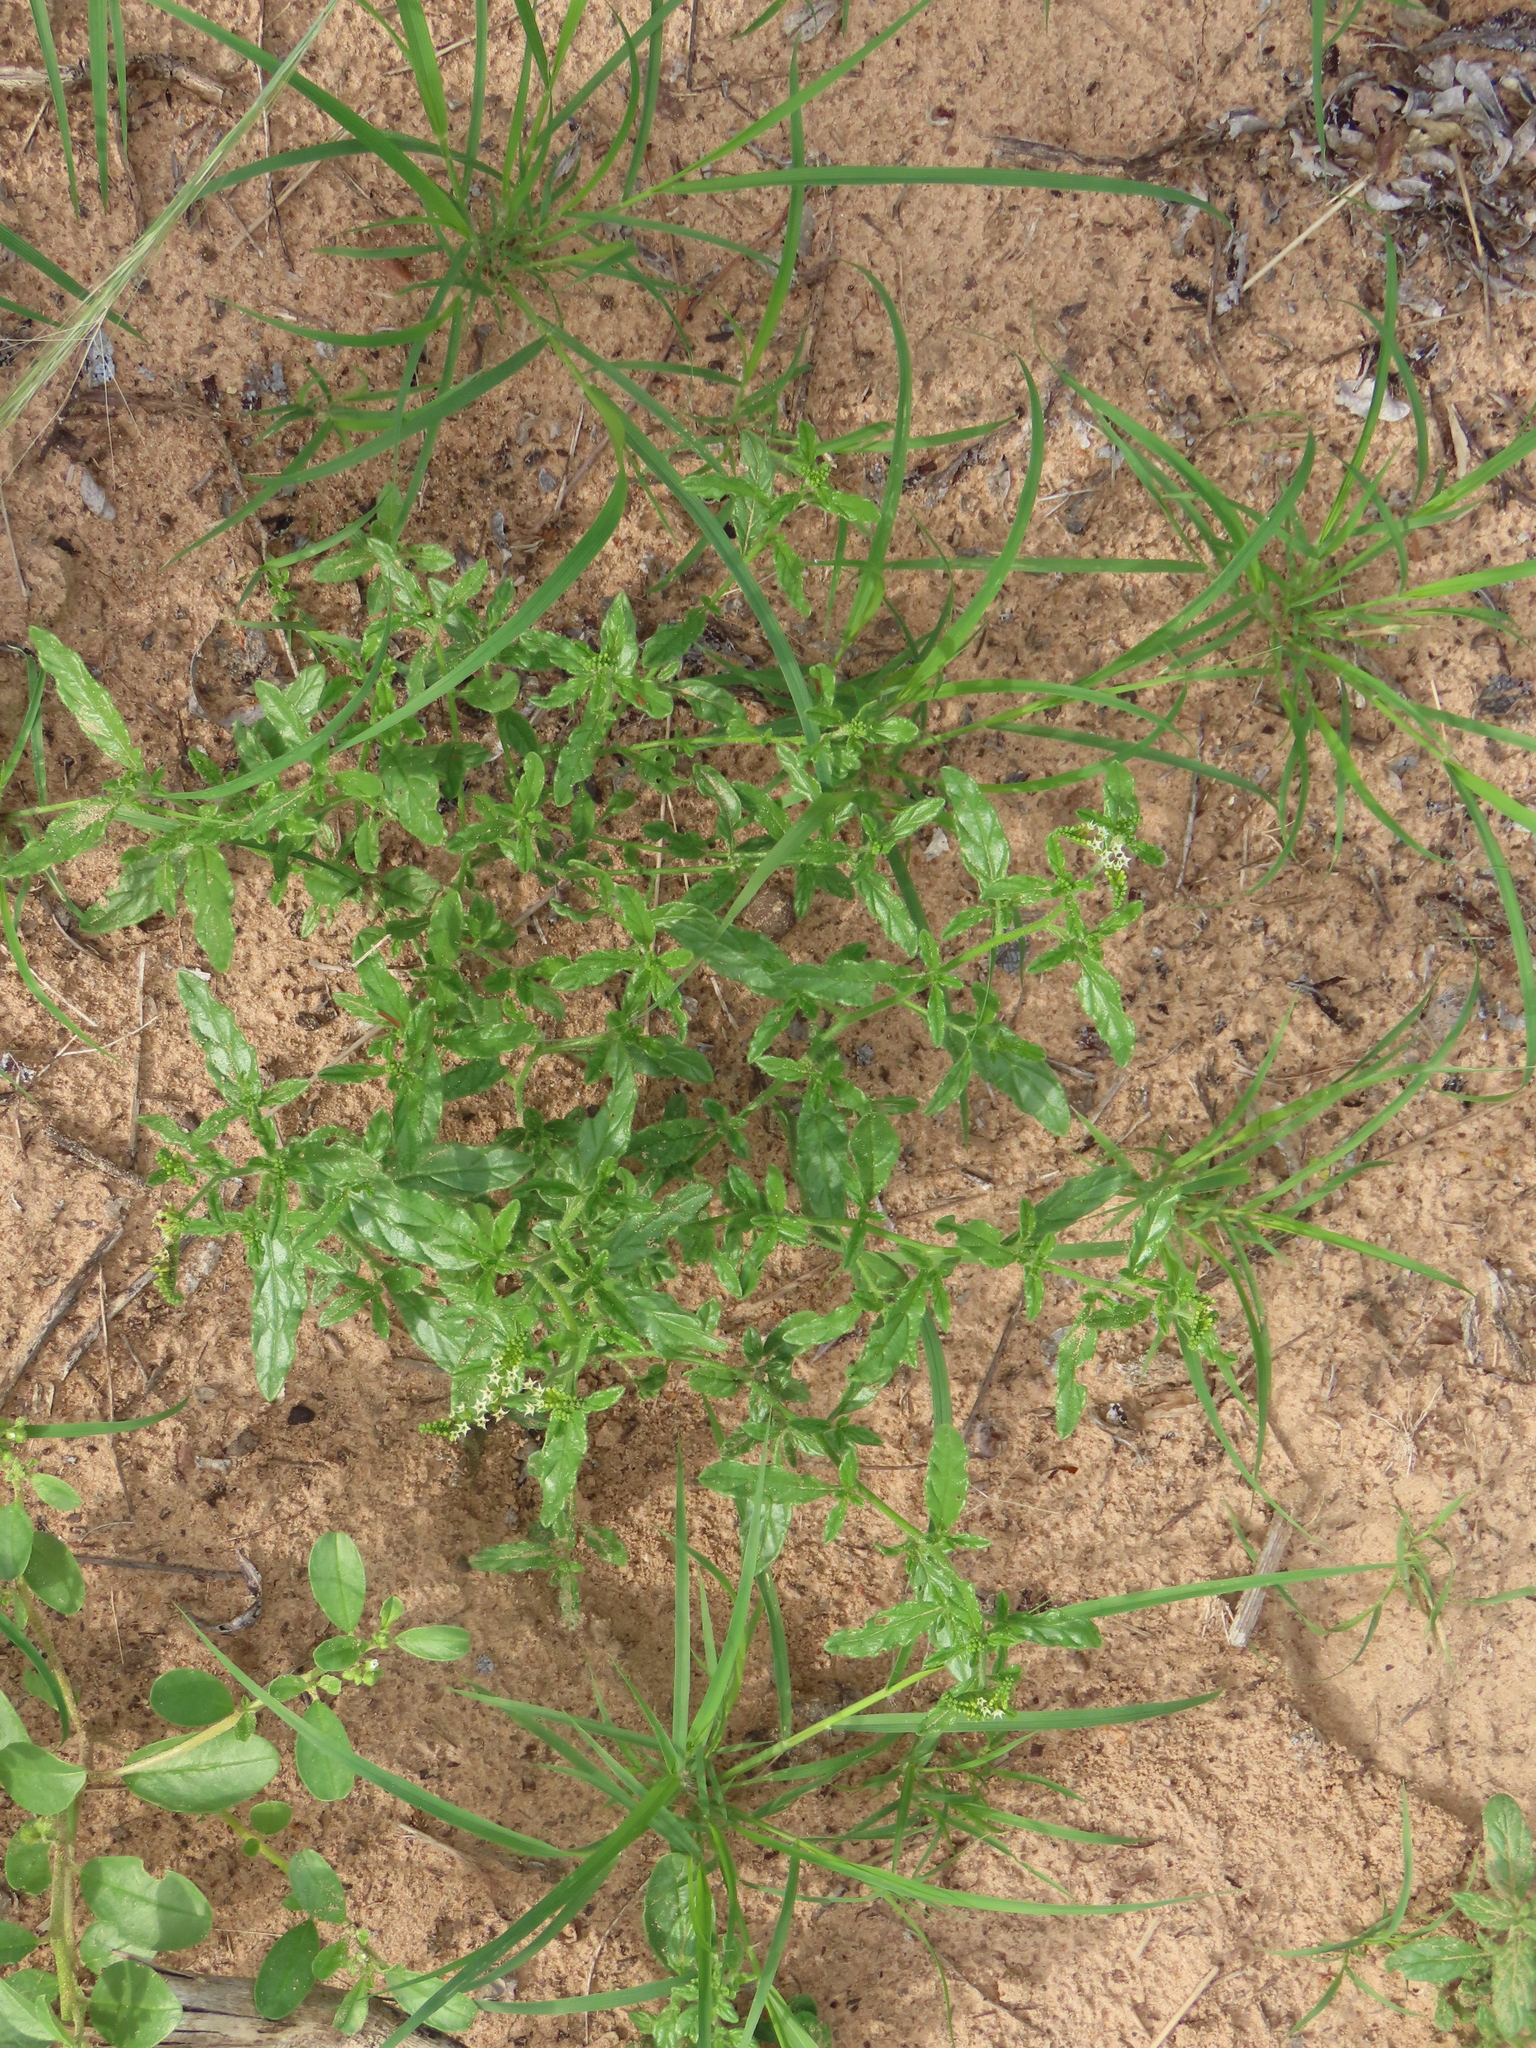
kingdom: Plantae
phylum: Tracheophyta
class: Magnoliopsida
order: Boraginales
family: Heliotropiaceae
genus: Heliotropium
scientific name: Heliotropium ciliatum
